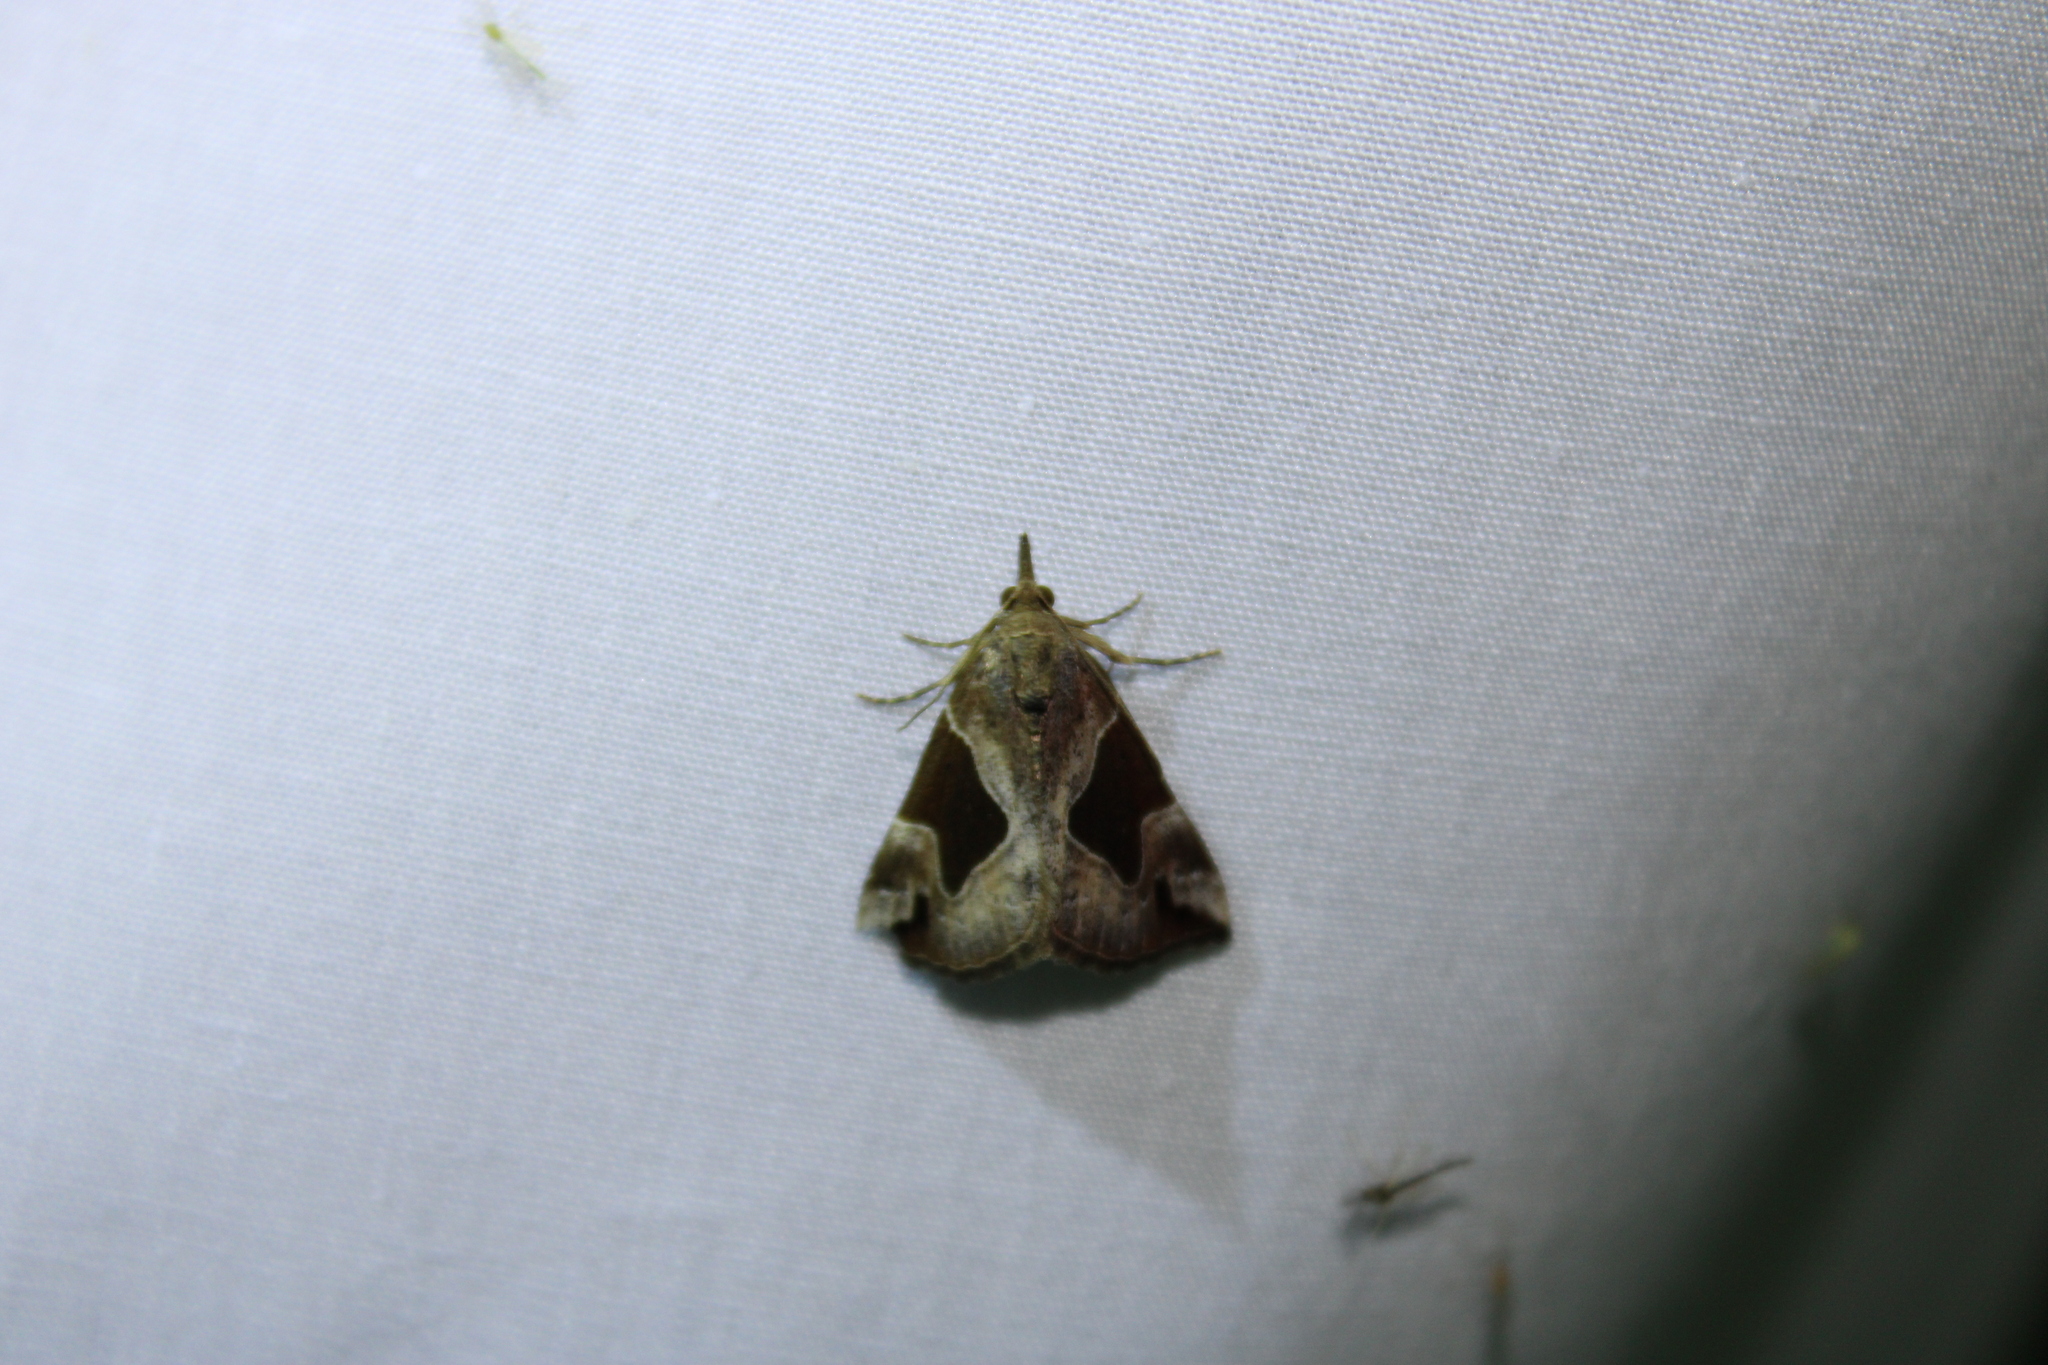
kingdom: Animalia
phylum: Arthropoda
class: Insecta
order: Lepidoptera
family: Erebidae
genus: Hypena
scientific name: Hypena manalis
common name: Flowing-line bomolocha moth
